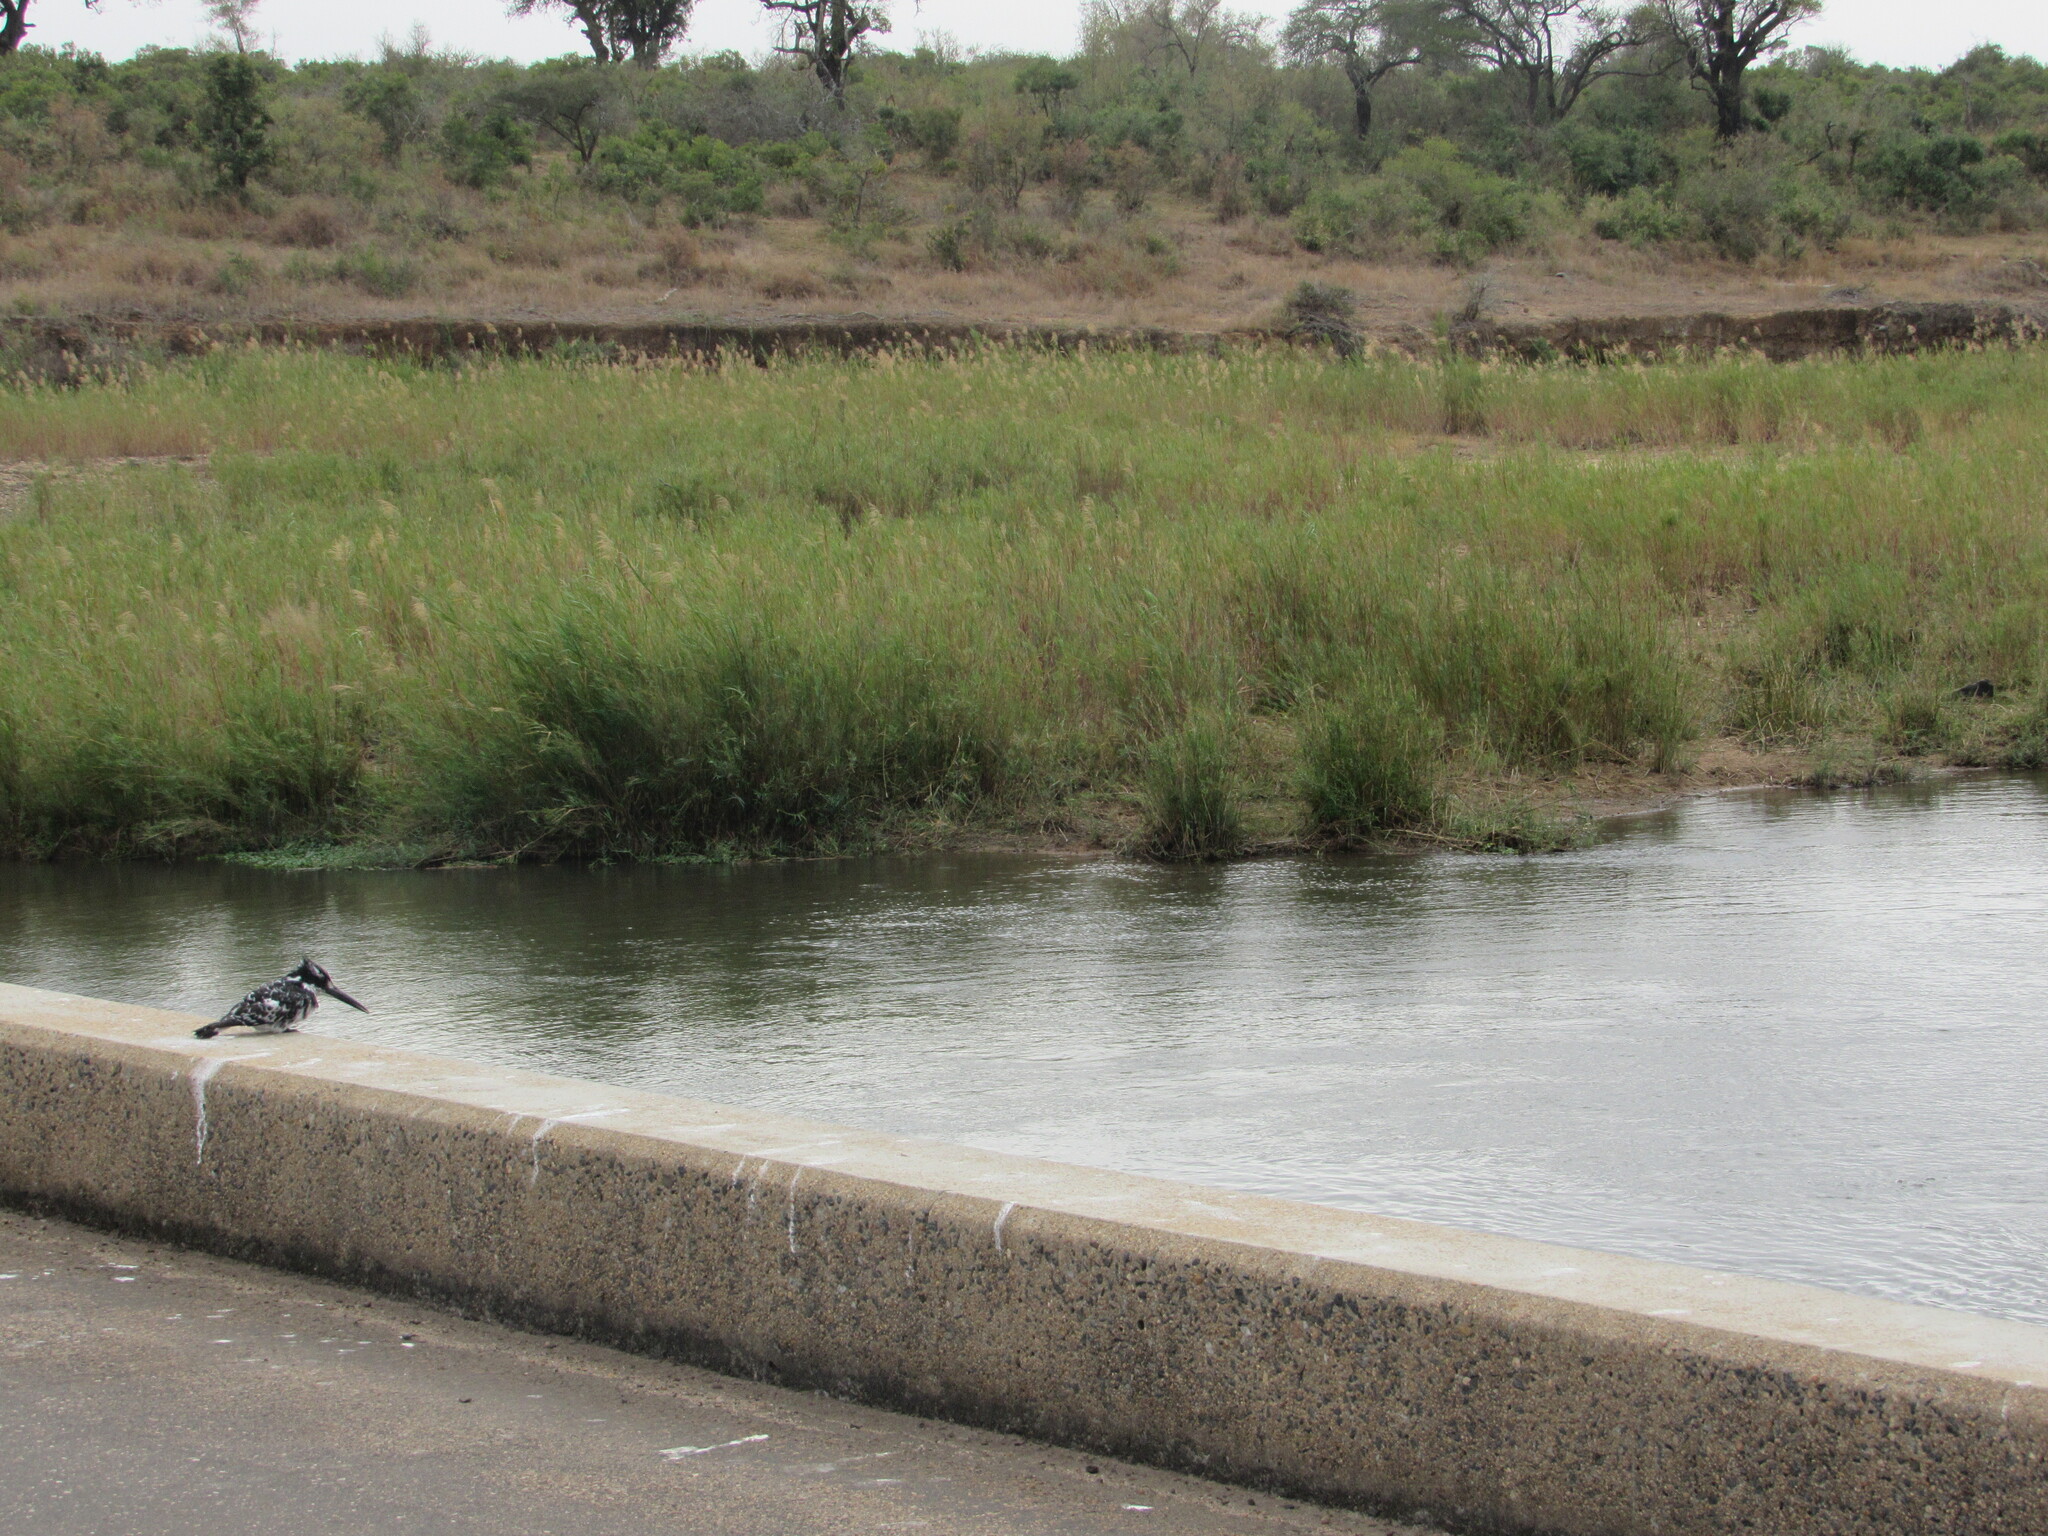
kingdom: Animalia
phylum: Chordata
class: Aves
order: Coraciiformes
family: Alcedinidae
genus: Ceryle
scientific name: Ceryle rudis
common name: Pied kingfisher
